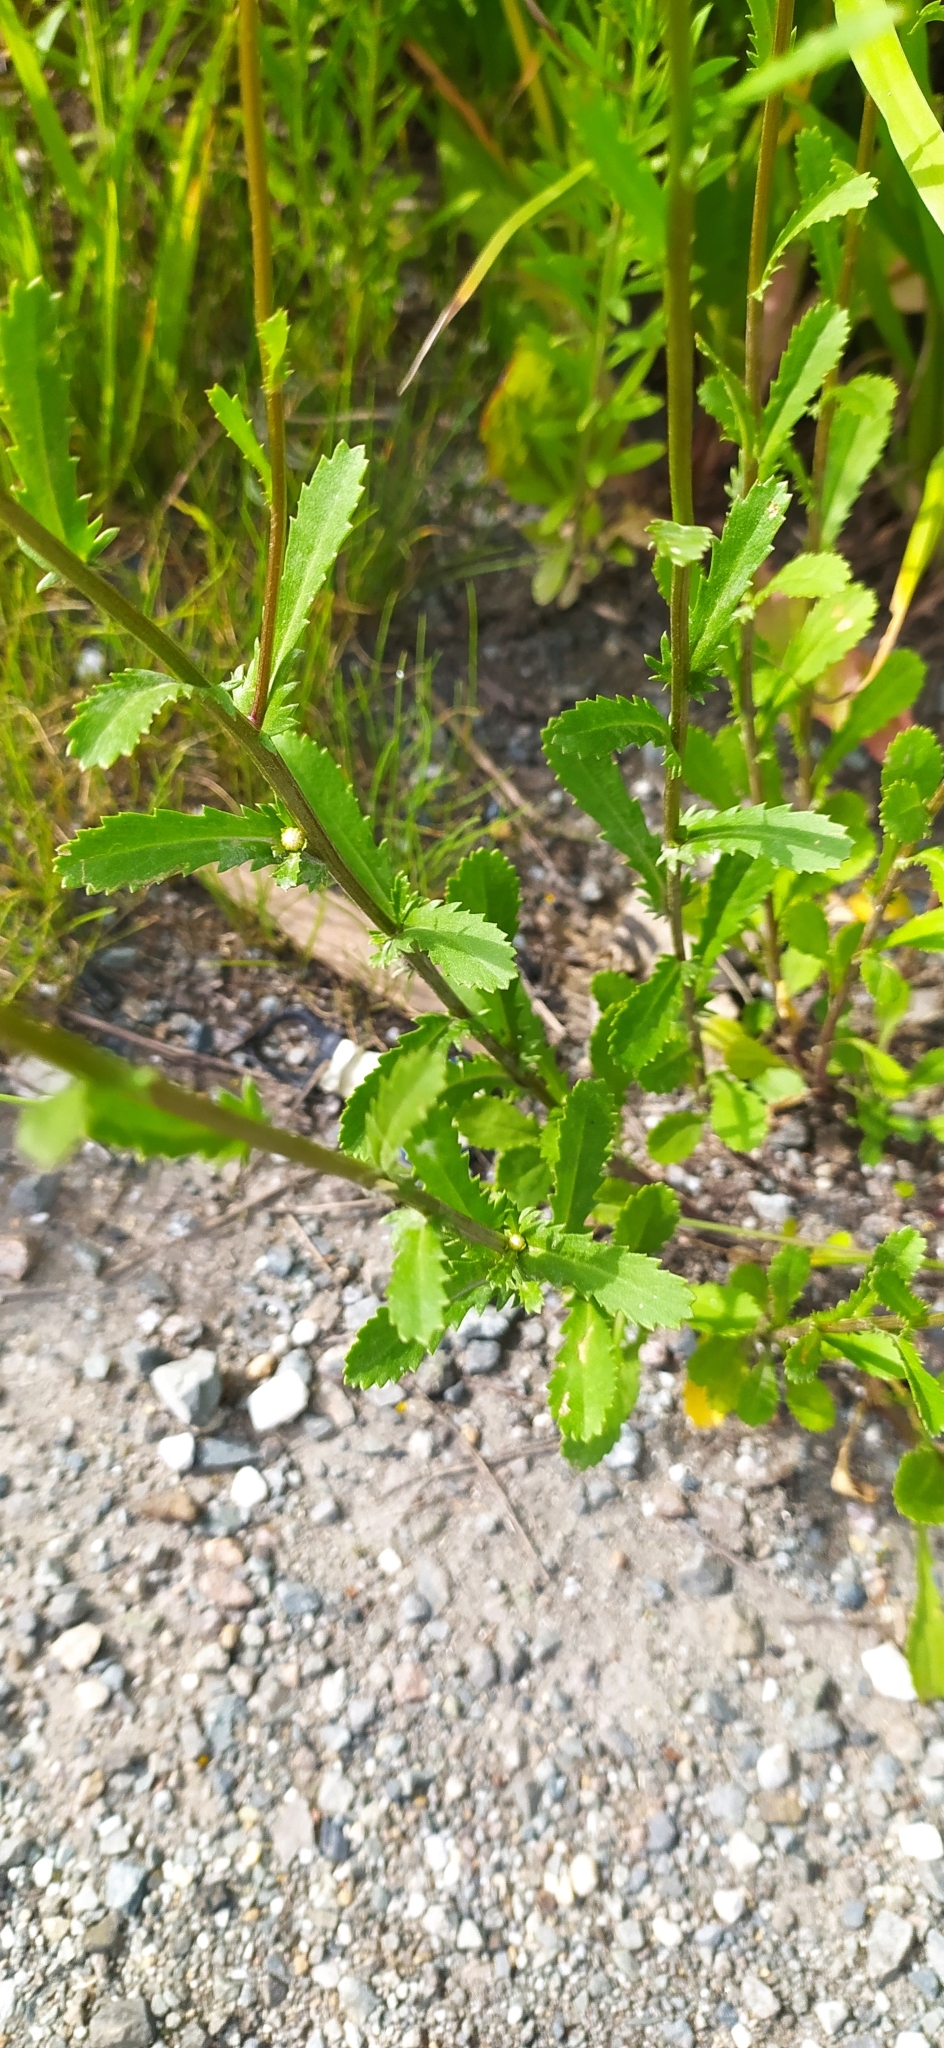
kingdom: Plantae
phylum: Tracheophyta
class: Magnoliopsida
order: Asterales
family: Asteraceae
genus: Leucanthemum
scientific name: Leucanthemum ircutianum
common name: Daisy
